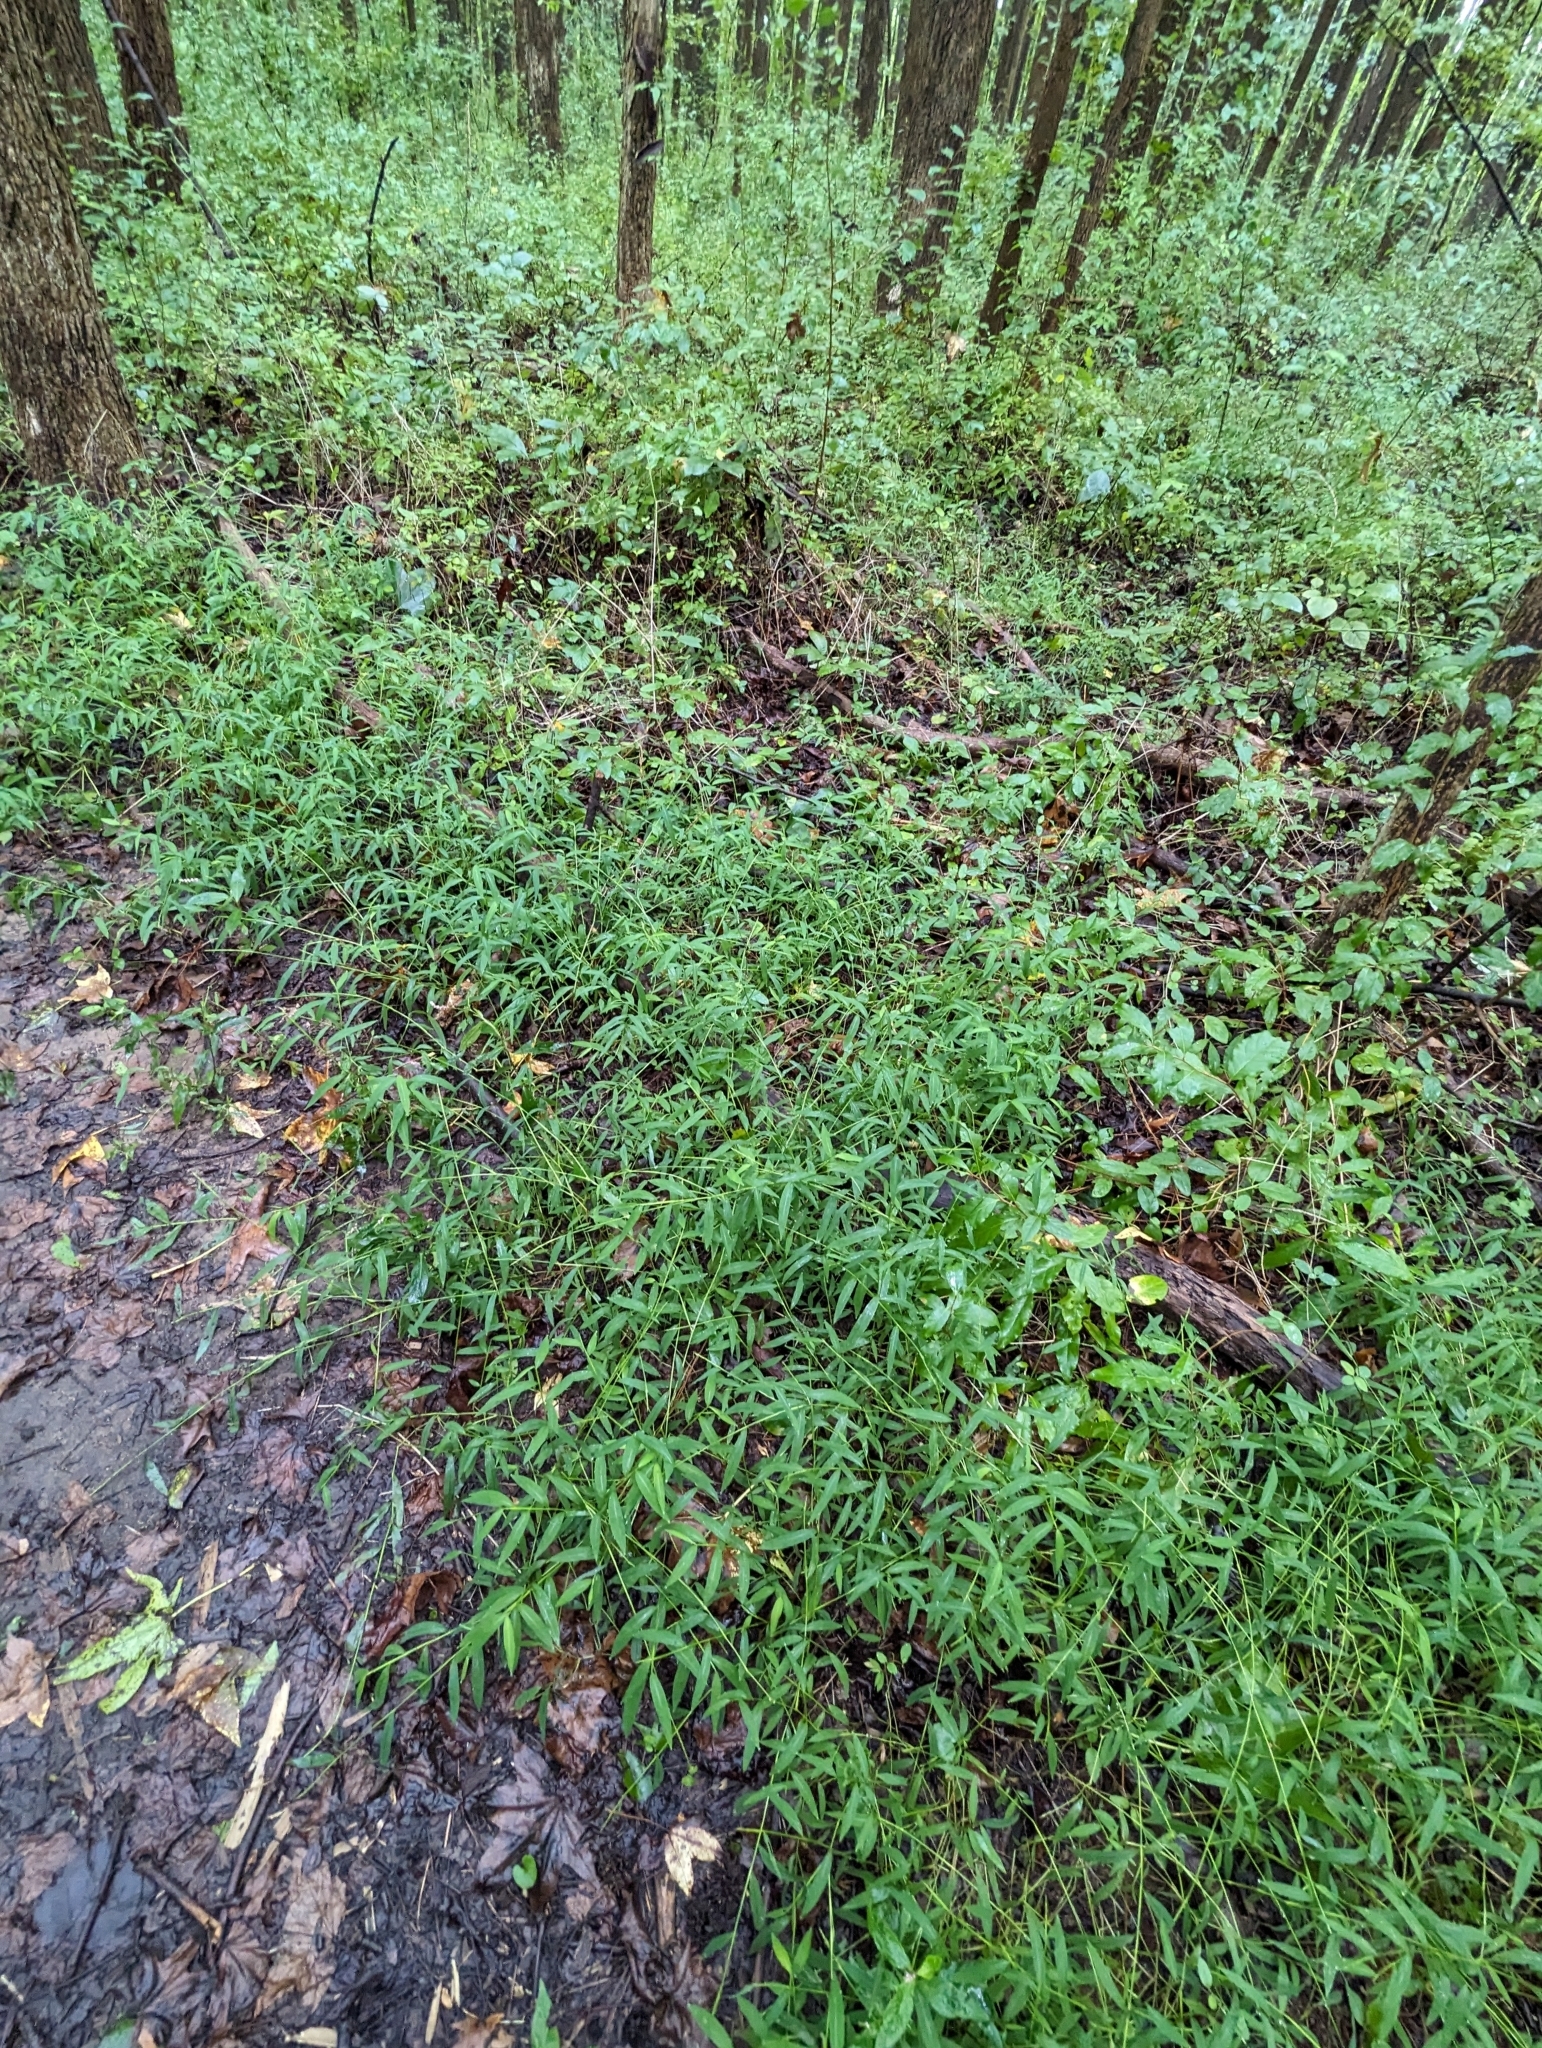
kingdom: Plantae
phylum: Tracheophyta
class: Liliopsida
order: Poales
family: Poaceae
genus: Microstegium
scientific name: Microstegium vimineum
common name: Japanese stiltgrass
